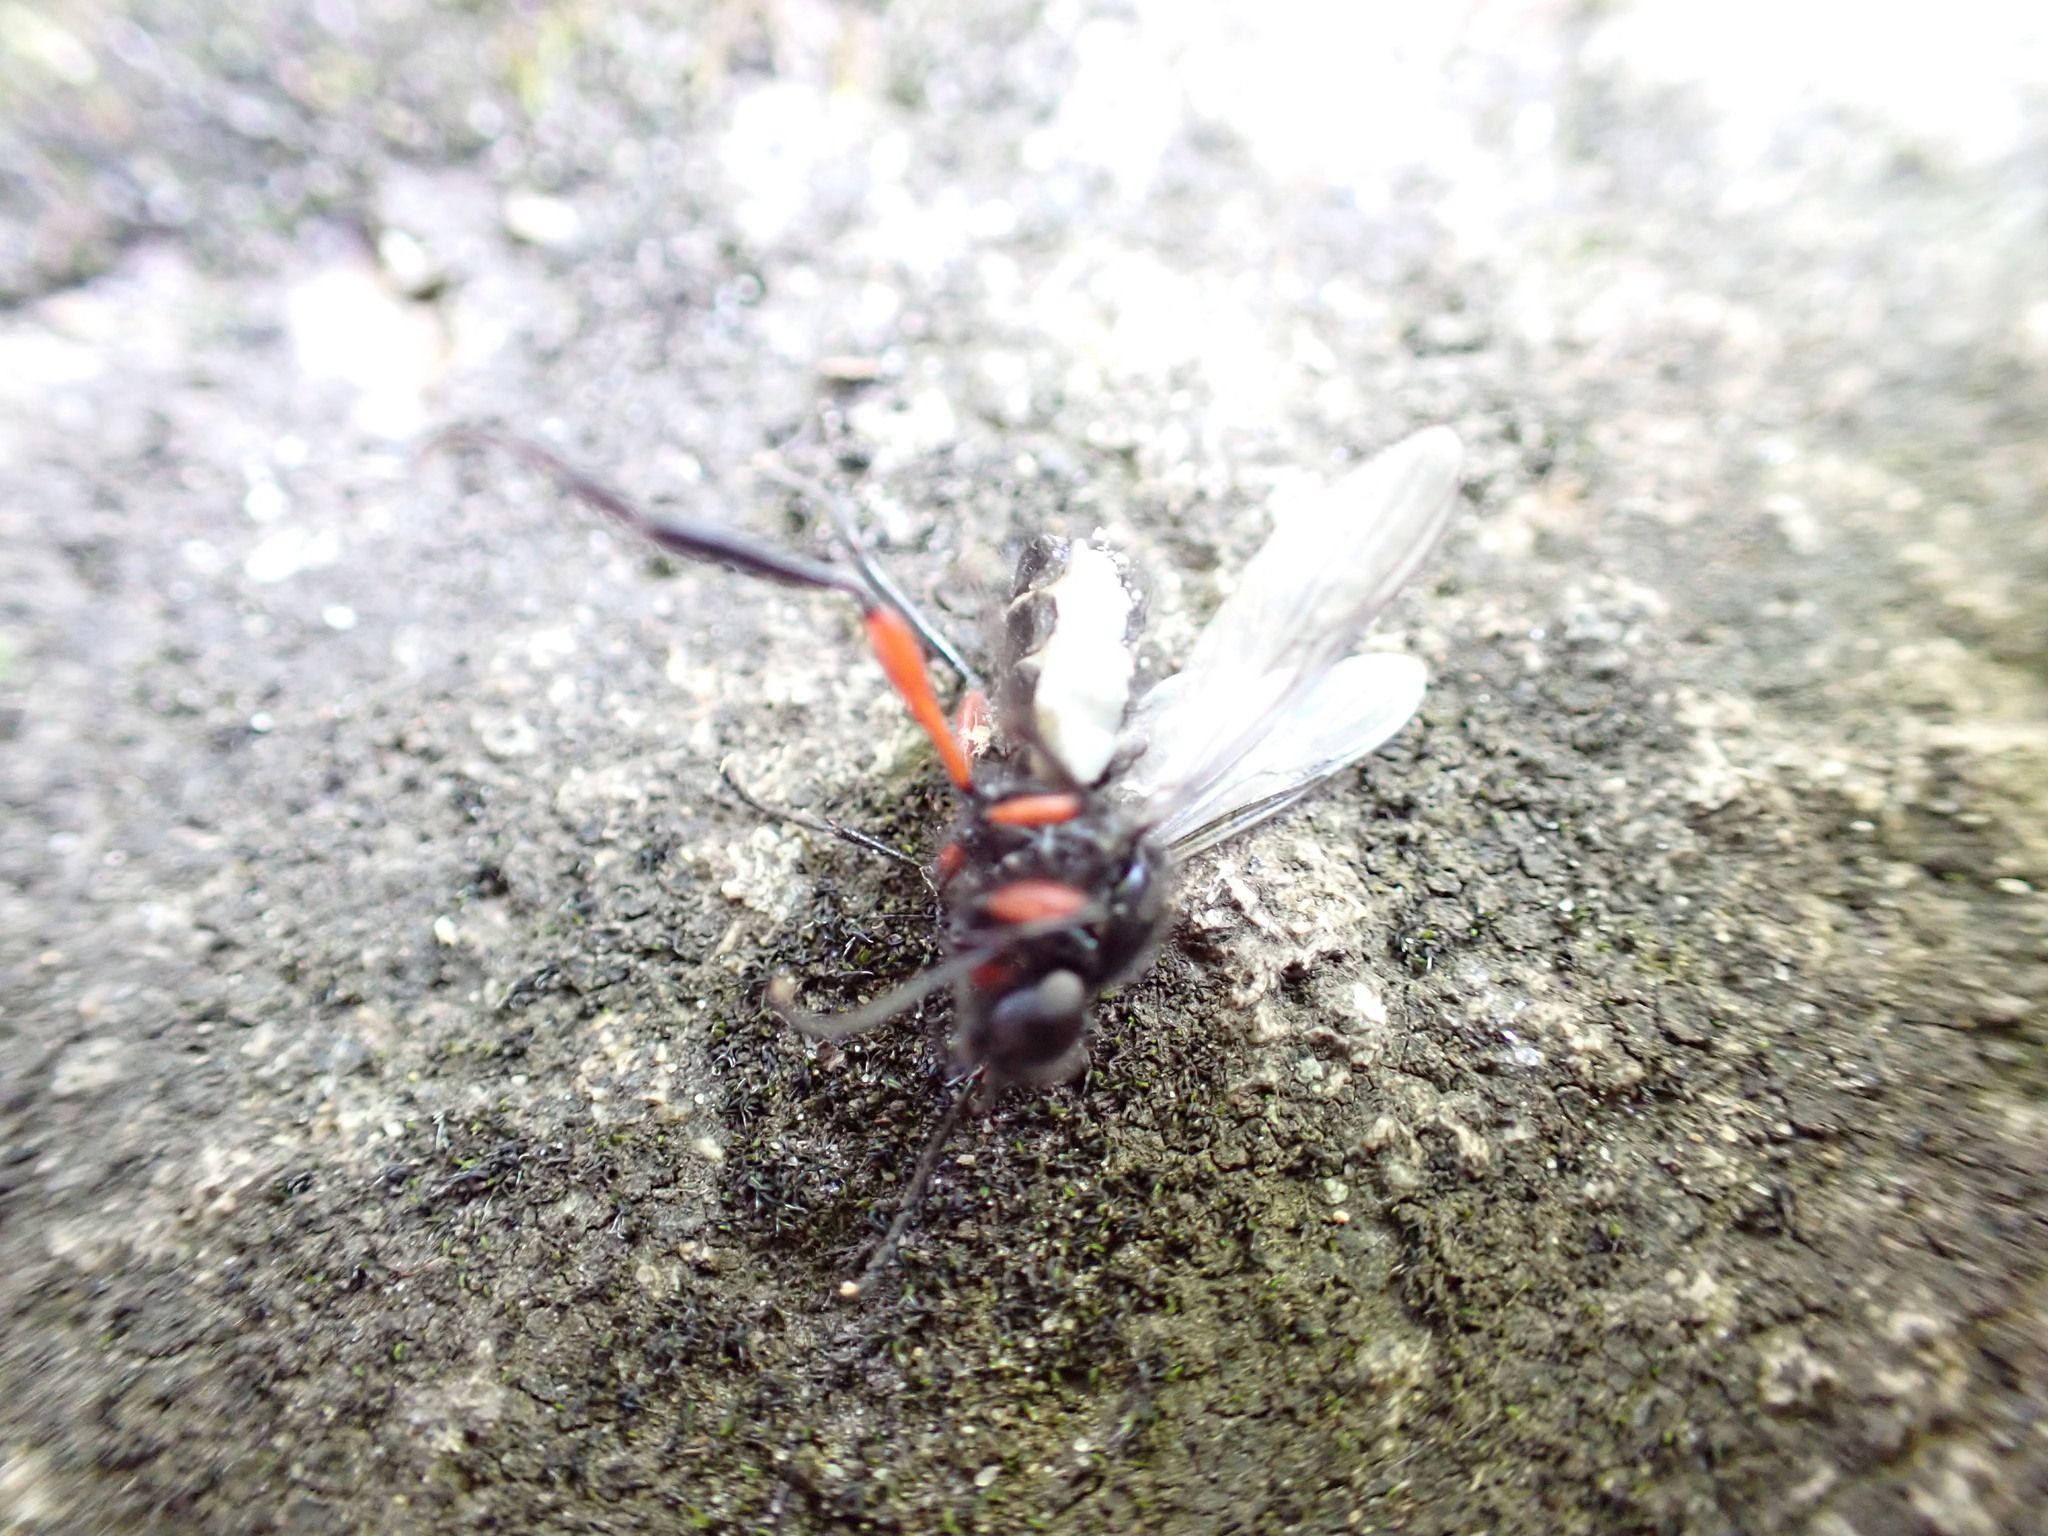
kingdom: Animalia
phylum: Arthropoda
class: Insecta
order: Diptera
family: Bibionidae
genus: Bibio
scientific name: Bibio pomonae
